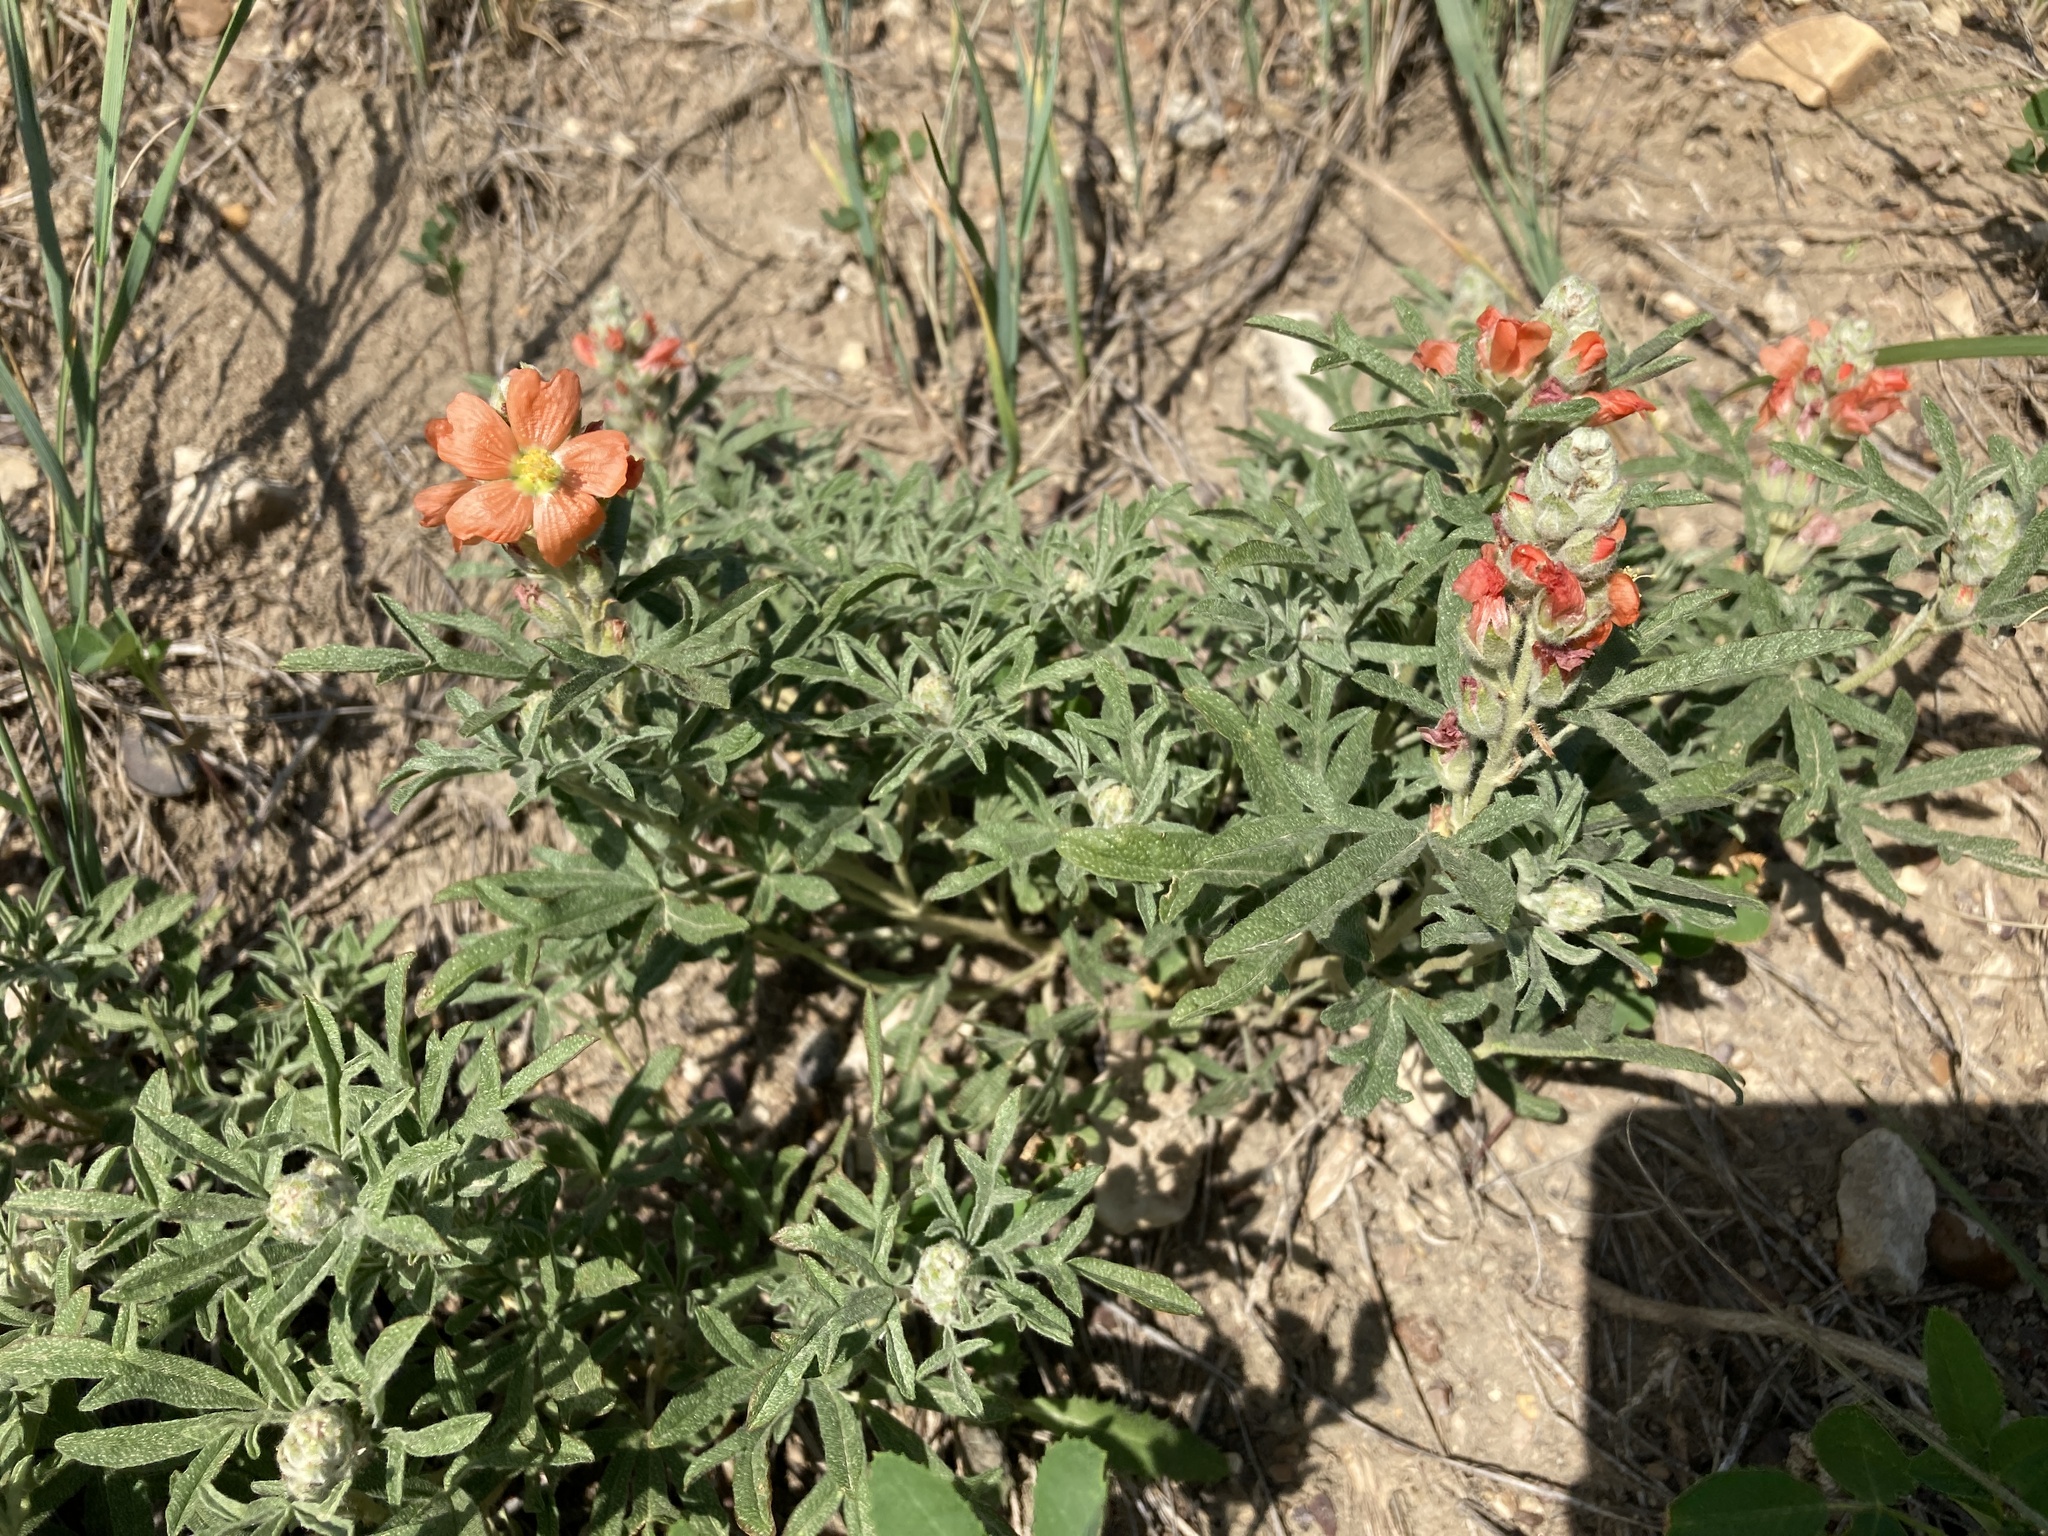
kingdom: Plantae
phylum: Tracheophyta
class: Magnoliopsida
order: Malvales
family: Malvaceae
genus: Sphaeralcea
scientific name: Sphaeralcea coccinea
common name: Moss-rose
